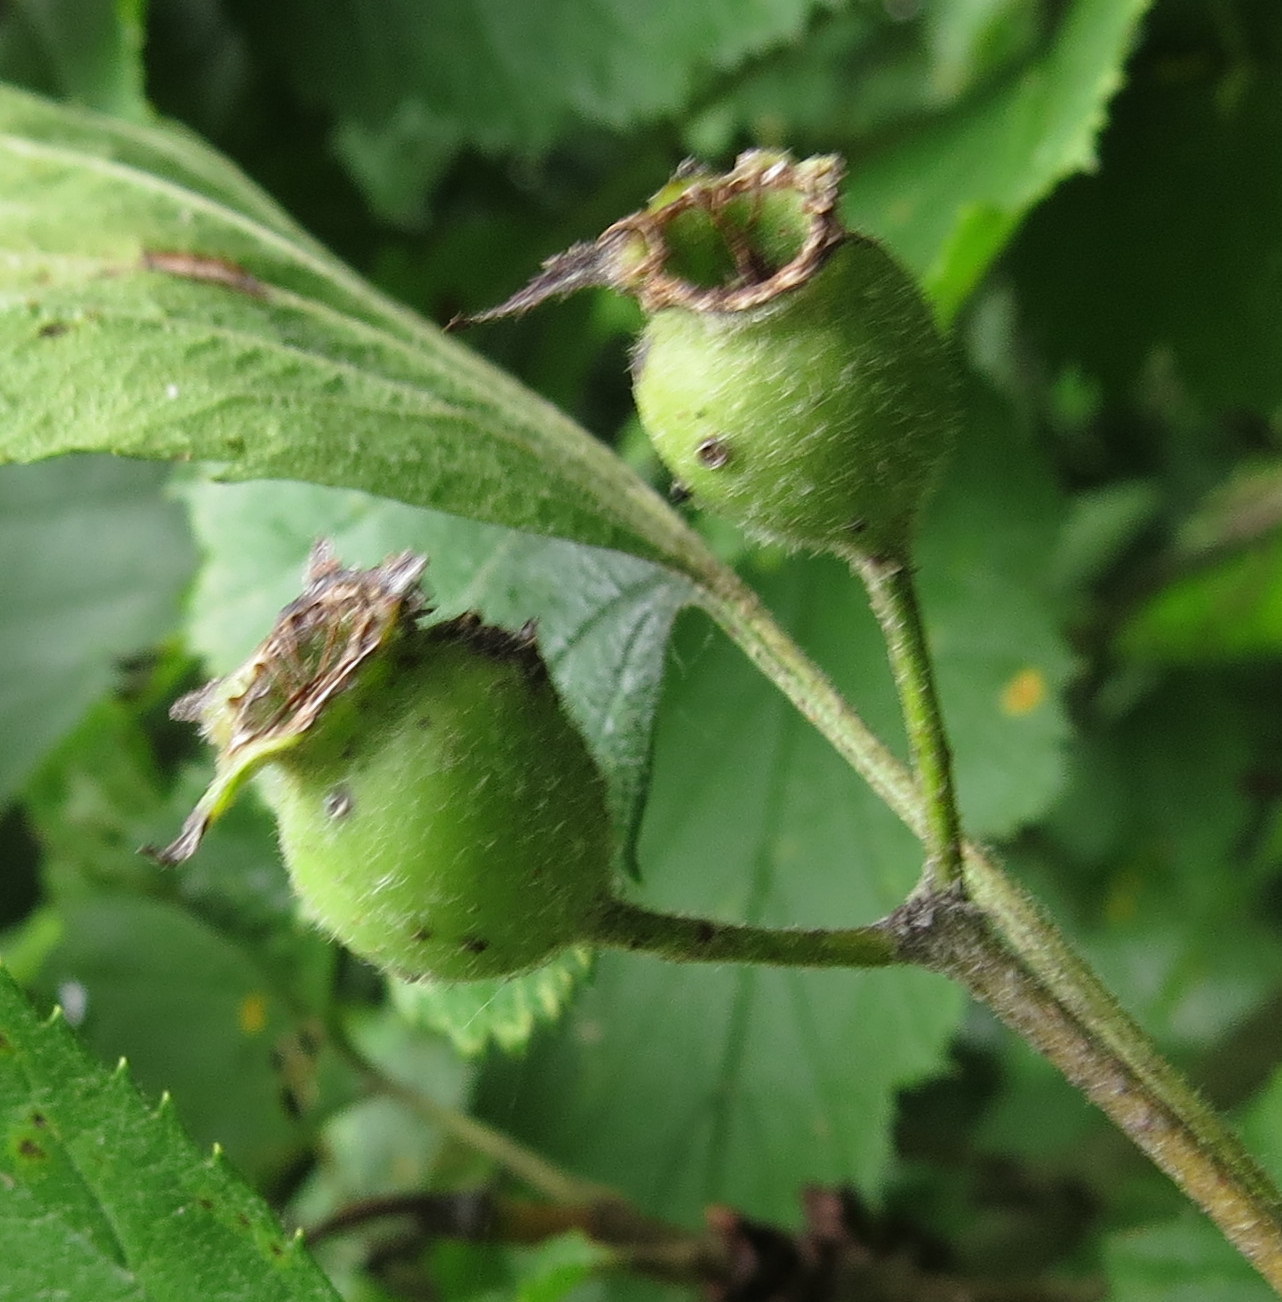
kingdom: Plantae
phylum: Tracheophyta
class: Magnoliopsida
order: Rosales
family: Rosaceae
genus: Crataegus
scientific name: Crataegus mollis
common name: Downy hawthorn
